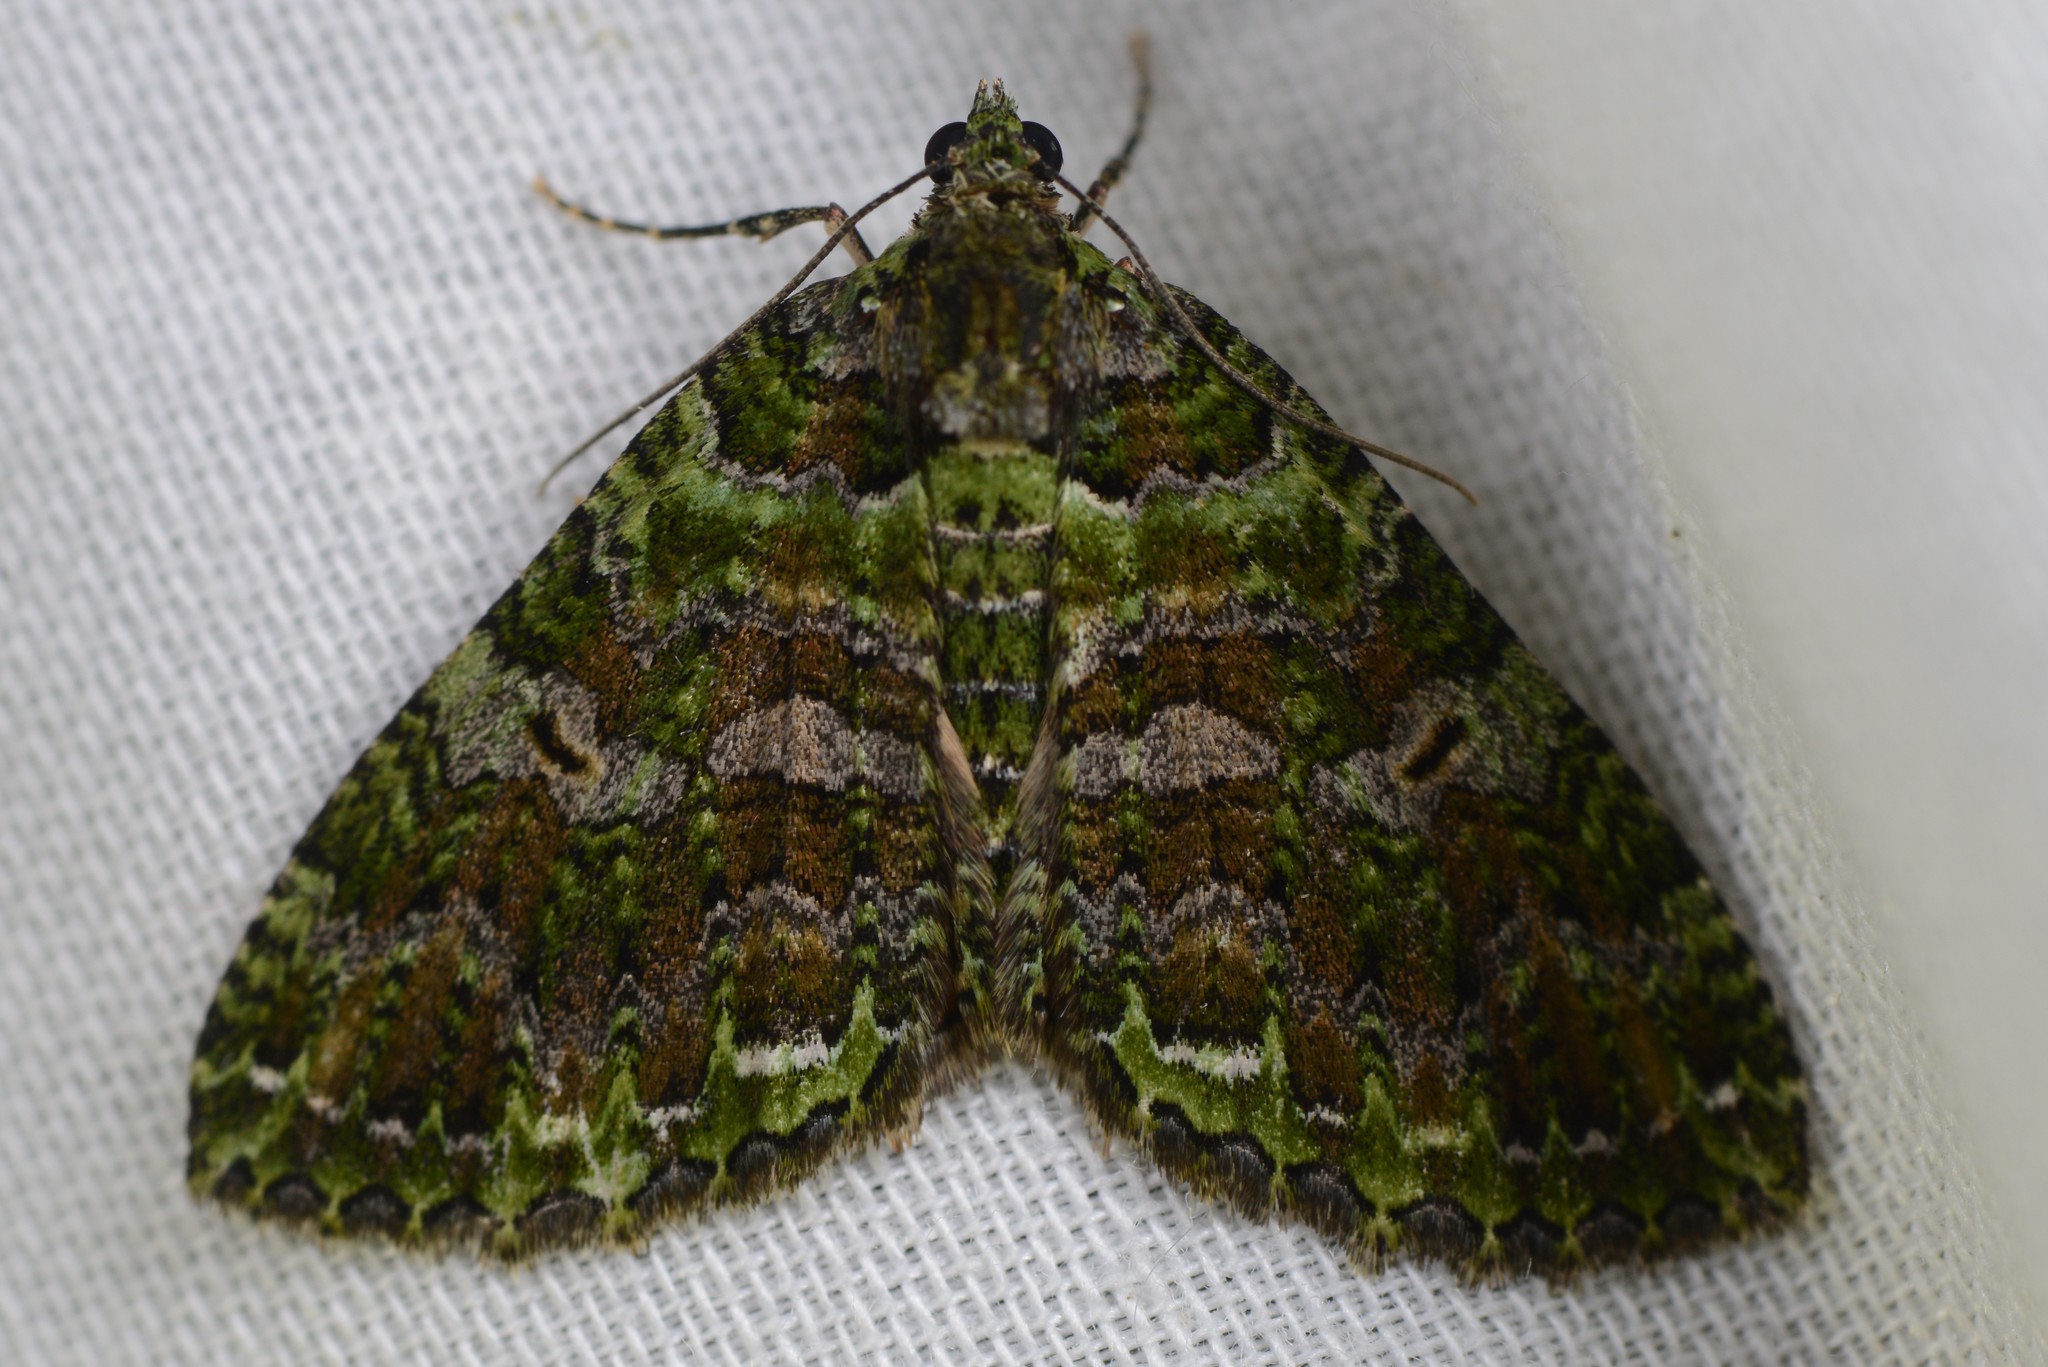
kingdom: Animalia
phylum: Arthropoda
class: Insecta
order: Lepidoptera
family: Geometridae
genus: Austrocidaria
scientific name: Austrocidaria similata
